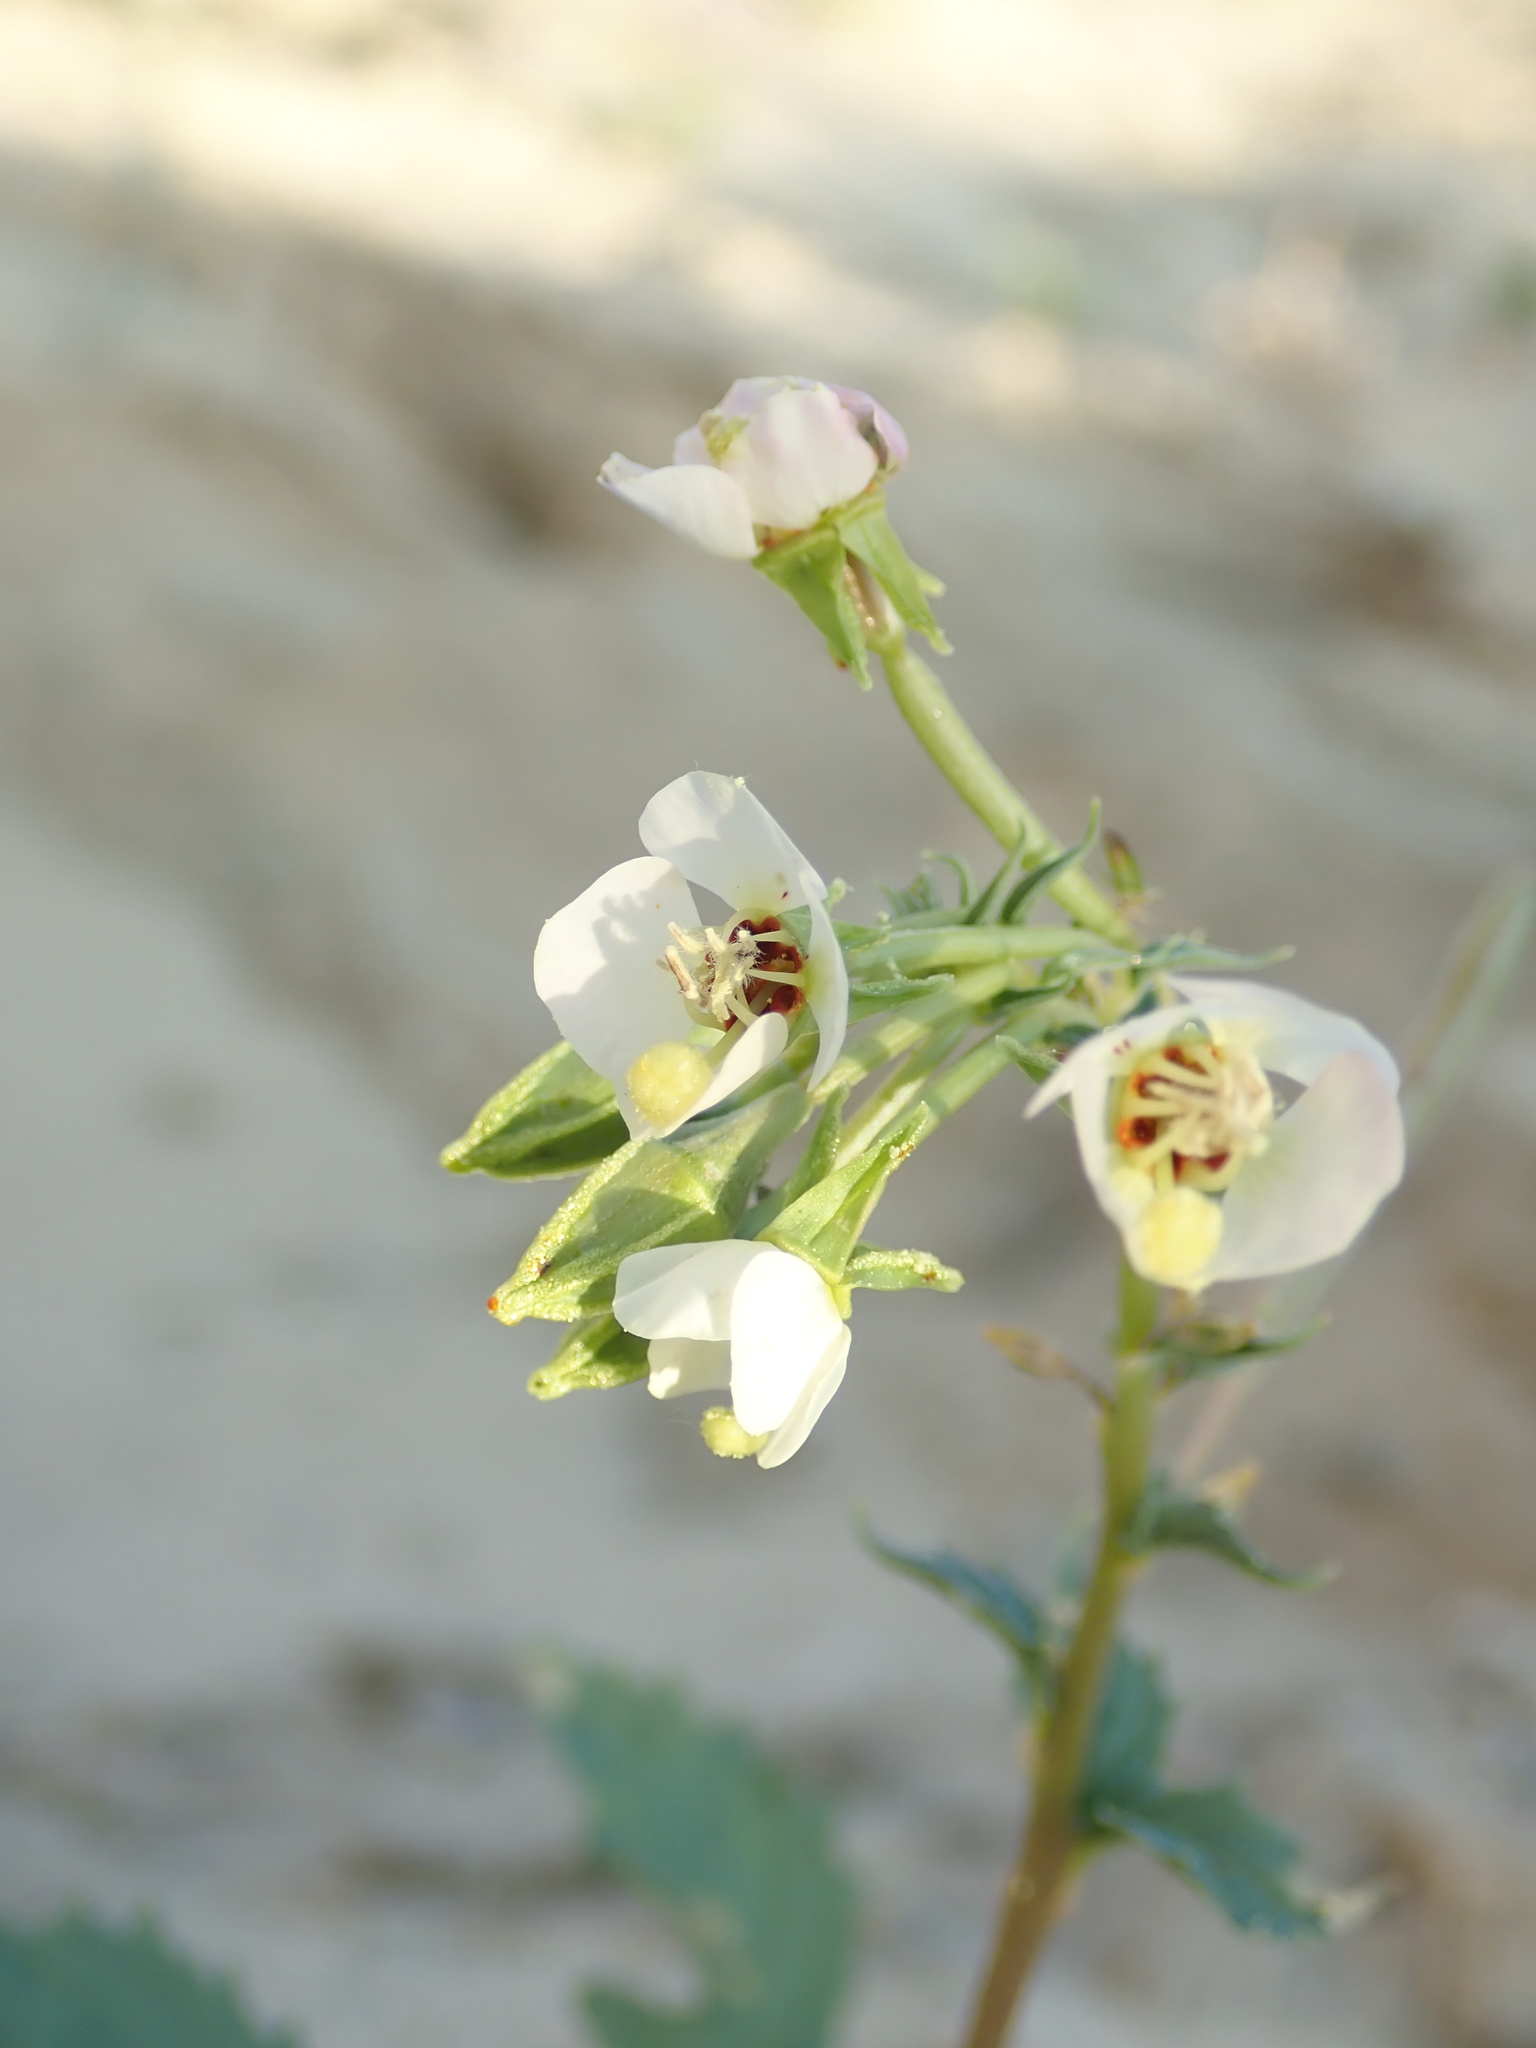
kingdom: Plantae
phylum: Tracheophyta
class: Magnoliopsida
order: Myrtales
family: Onagraceae
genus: Chylismia
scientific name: Chylismia claviformis
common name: Browneyes
